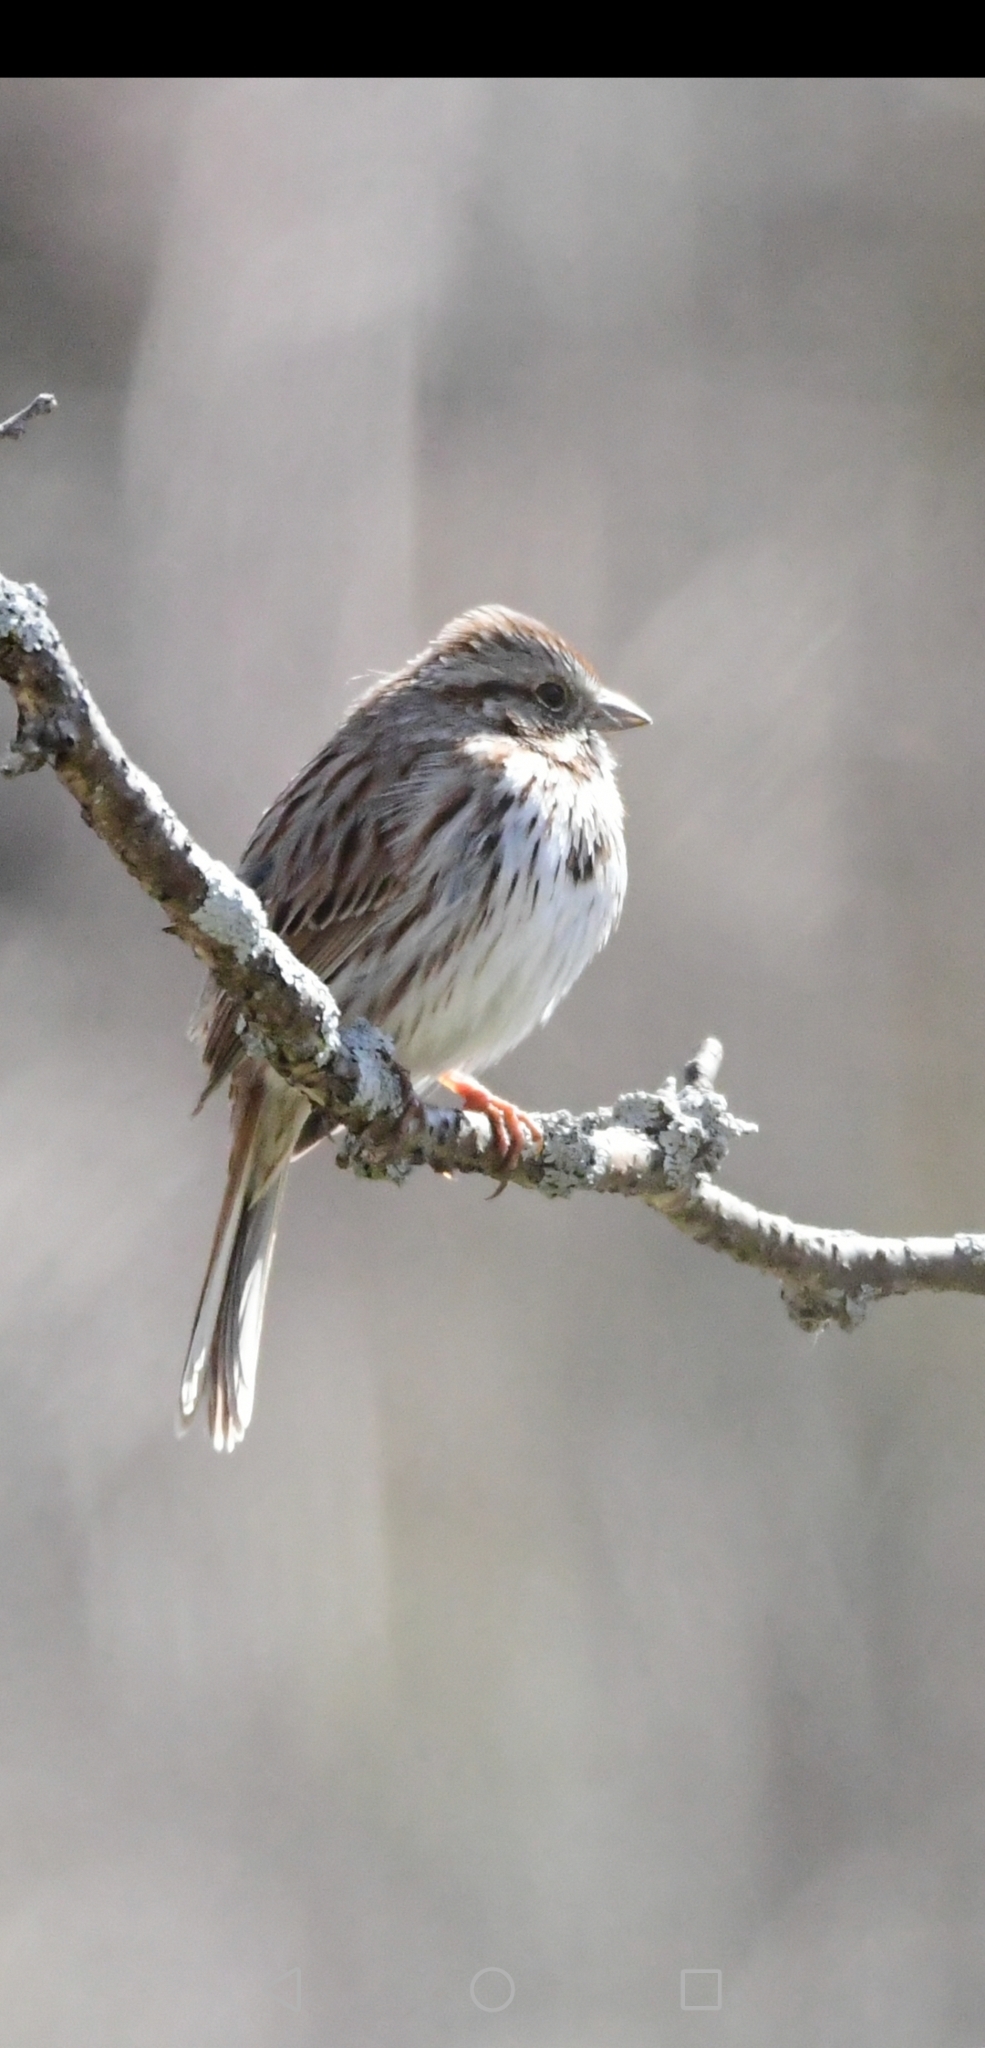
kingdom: Animalia
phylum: Chordata
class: Aves
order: Passeriformes
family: Passerellidae
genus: Melospiza
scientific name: Melospiza melodia
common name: Song sparrow
